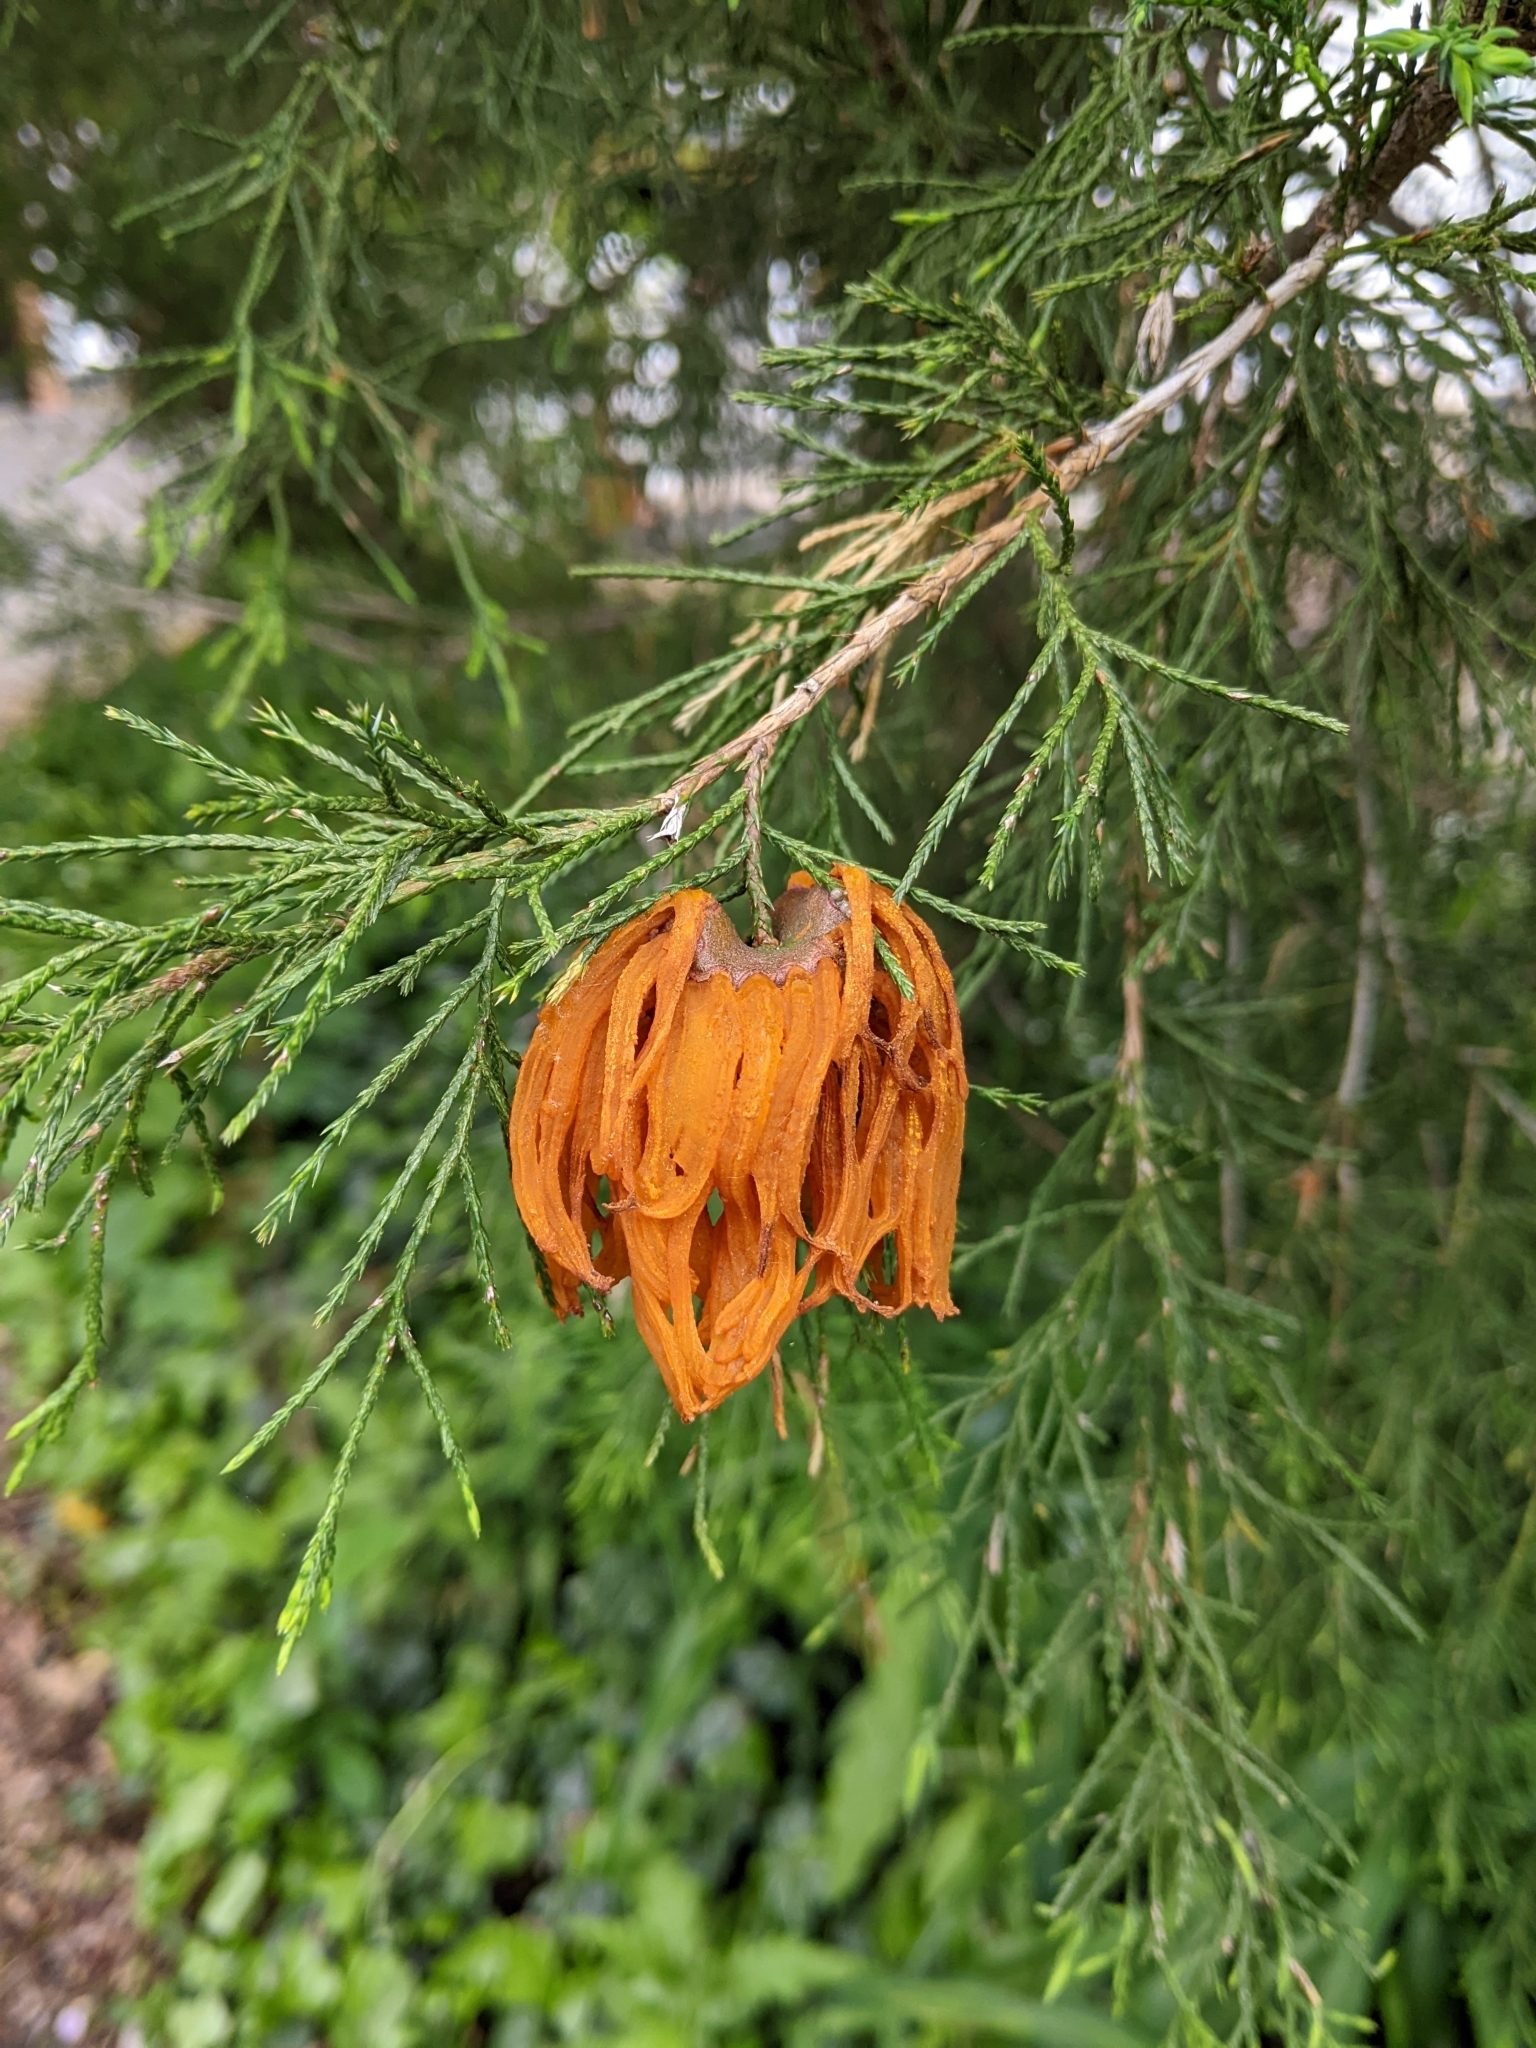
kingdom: Fungi
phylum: Basidiomycota
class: Pucciniomycetes
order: Pucciniales
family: Gymnosporangiaceae
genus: Gymnosporangium
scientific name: Gymnosporangium juniperi-virginianae
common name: Juniper-apple rust
